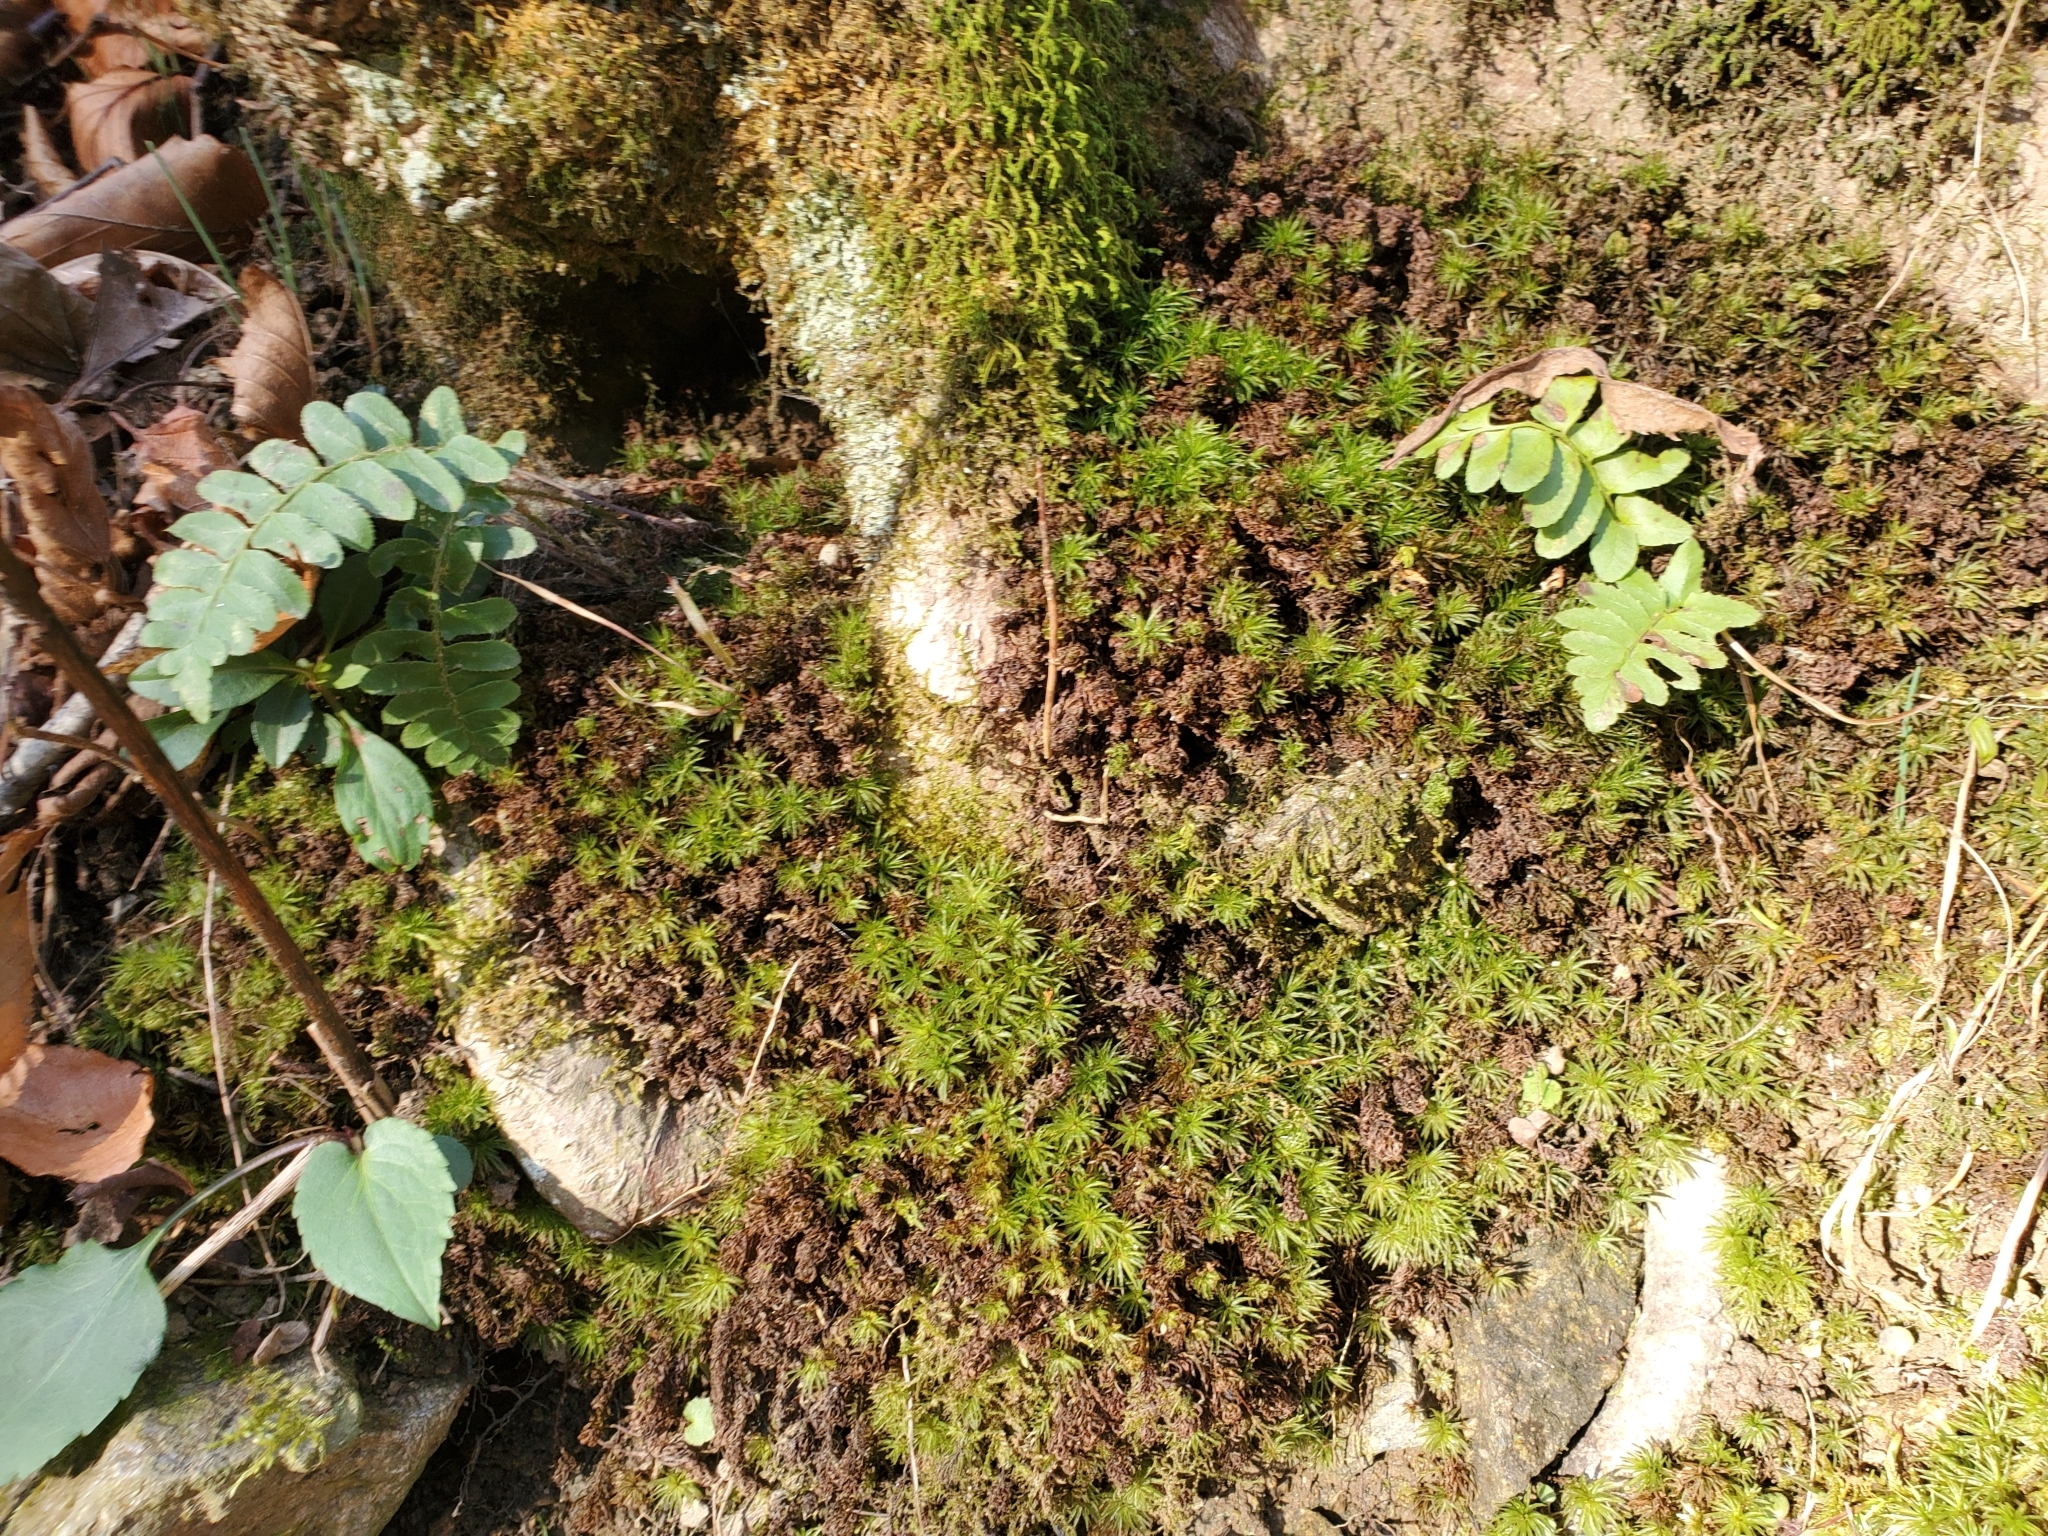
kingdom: Plantae
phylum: Tracheophyta
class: Polypodiopsida
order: Polypodiales
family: Dryopteridaceae
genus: Polystichum
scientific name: Polystichum acrostichoides
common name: Christmas fern
